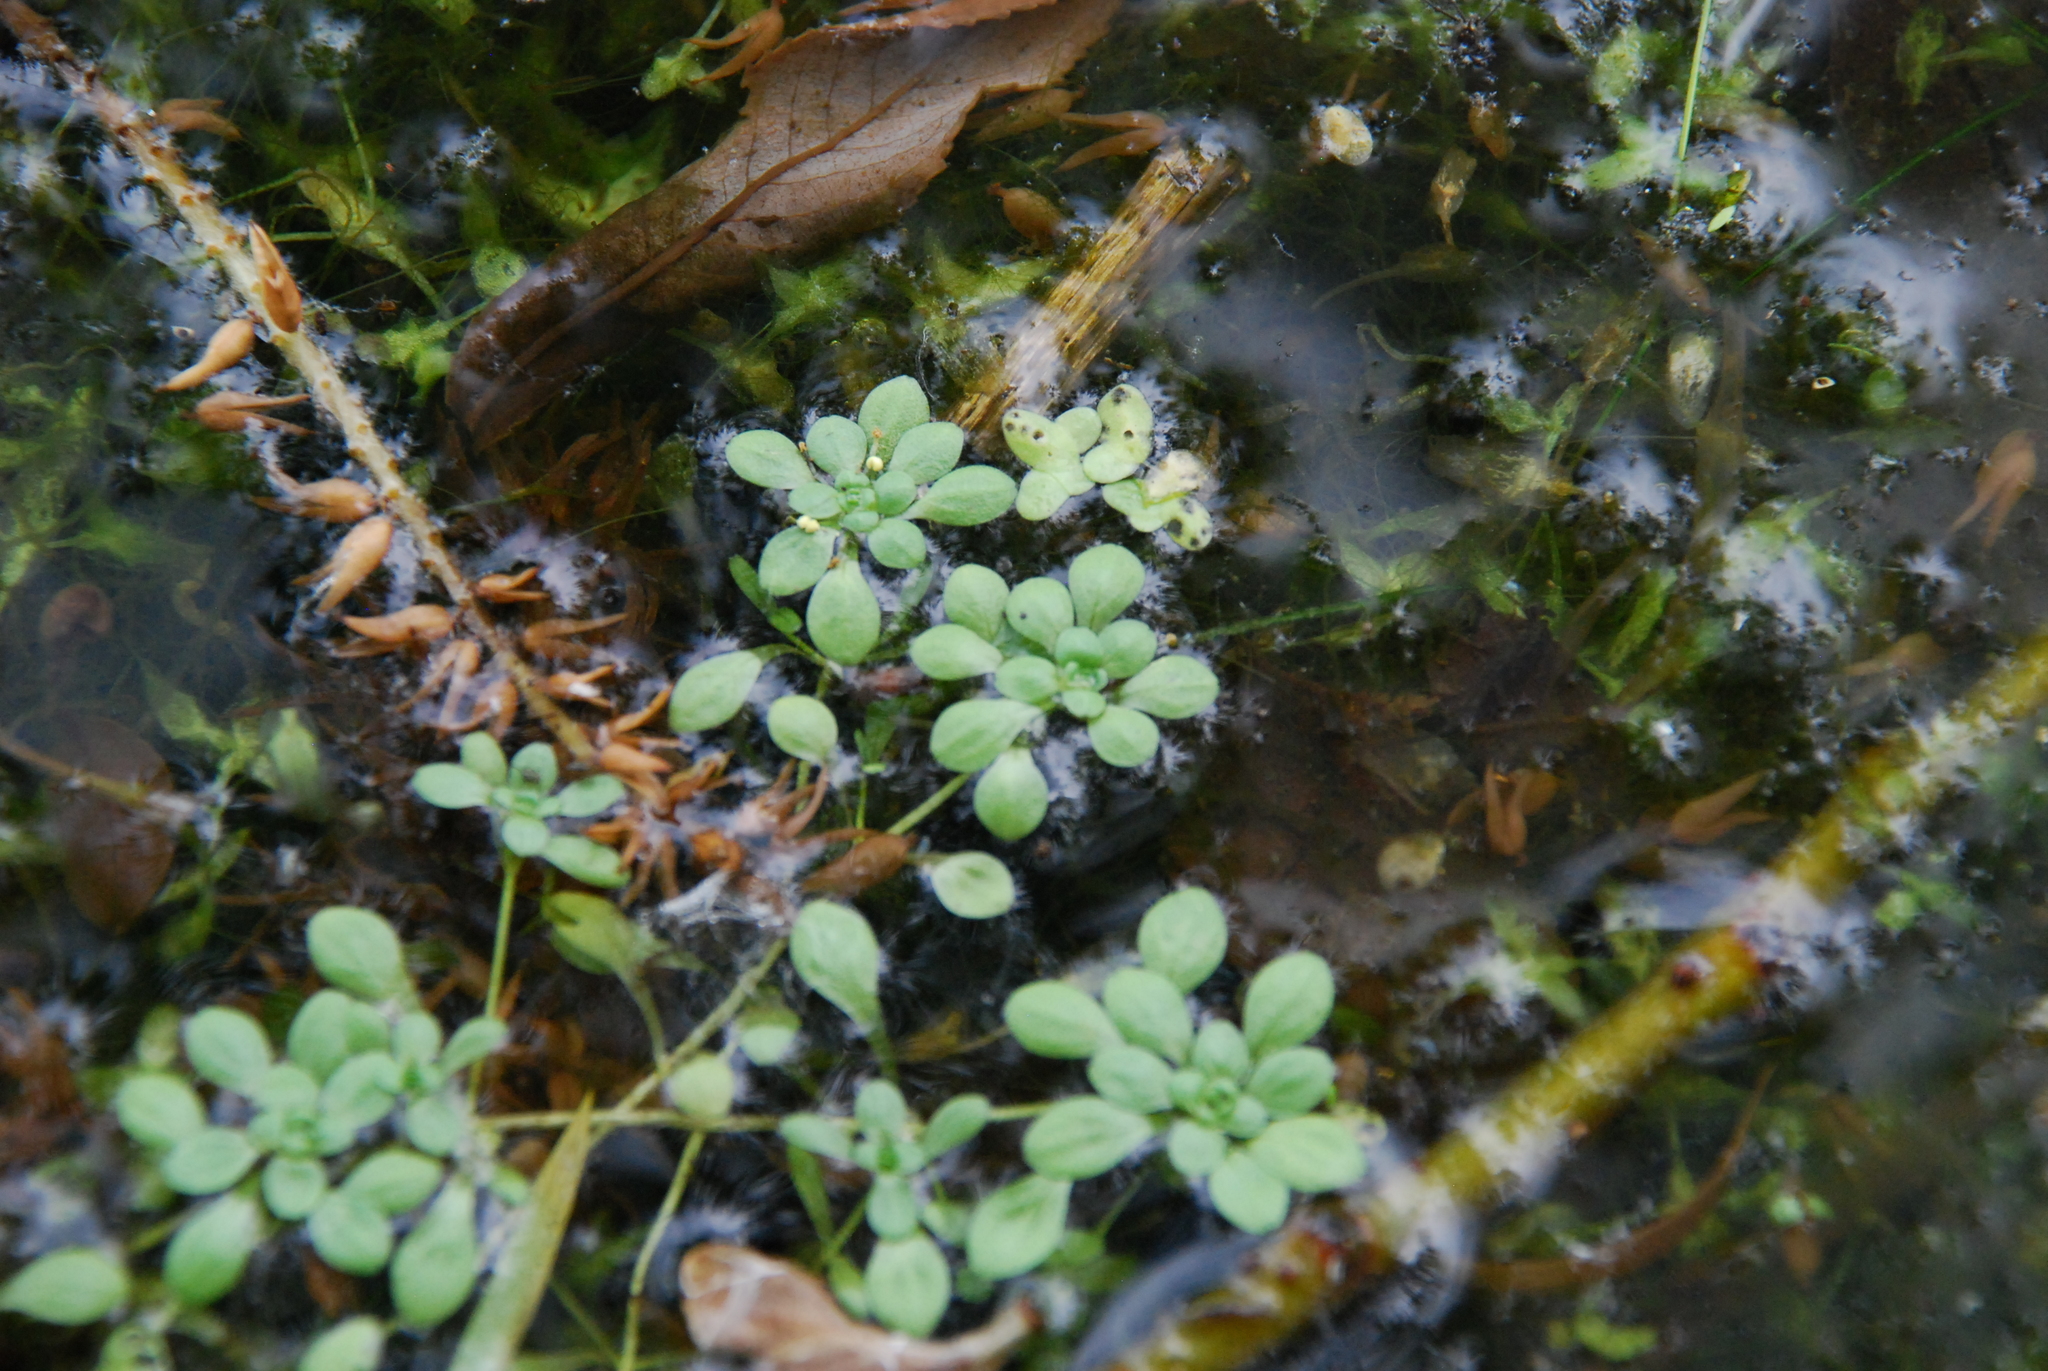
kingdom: Plantae
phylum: Tracheophyta
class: Magnoliopsida
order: Lamiales
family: Plantaginaceae
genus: Callitriche
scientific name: Callitriche palustris
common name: Spring water-starwort
